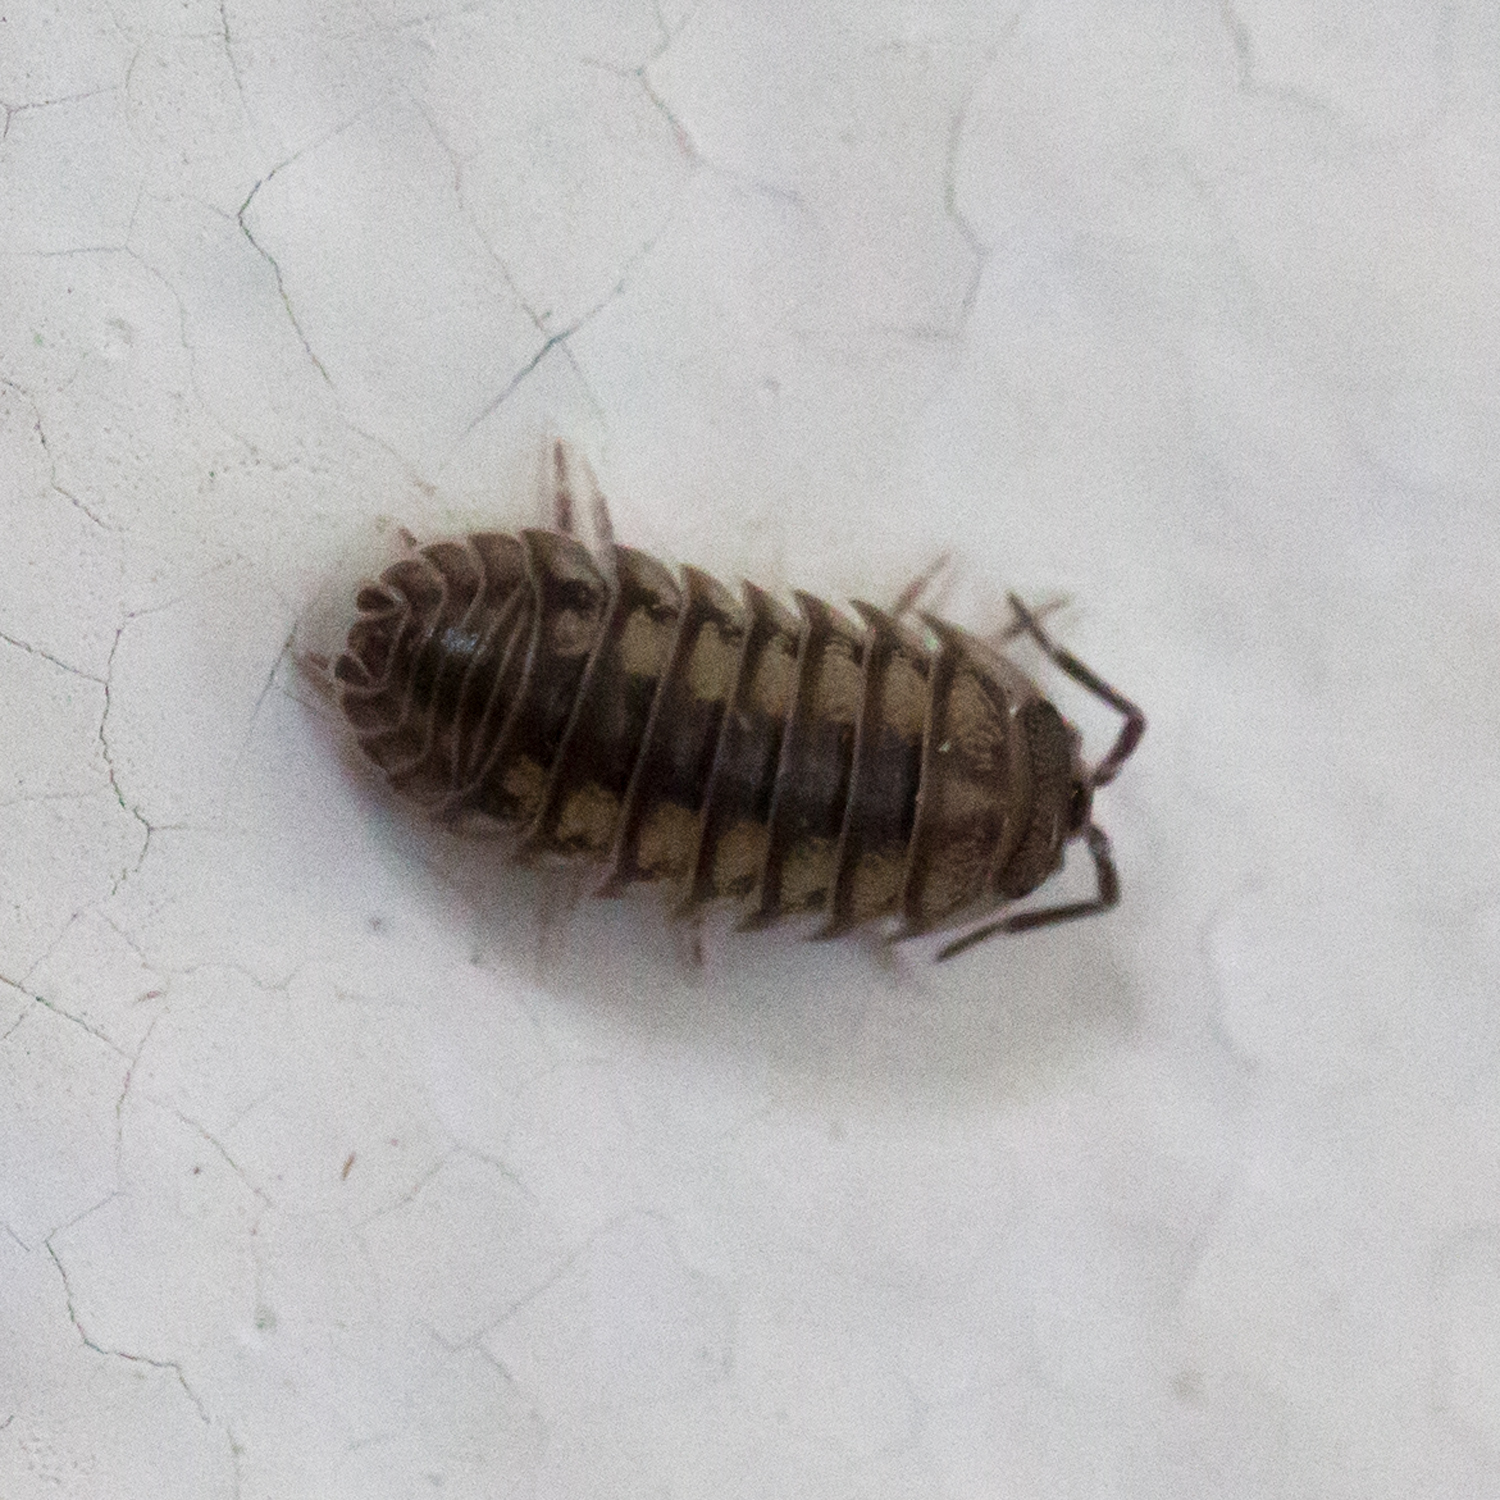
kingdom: Animalia
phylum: Arthropoda
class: Malacostraca
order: Isopoda
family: Armadillidiidae
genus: Armadillidium
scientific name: Armadillidium nasatum
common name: Isopod
